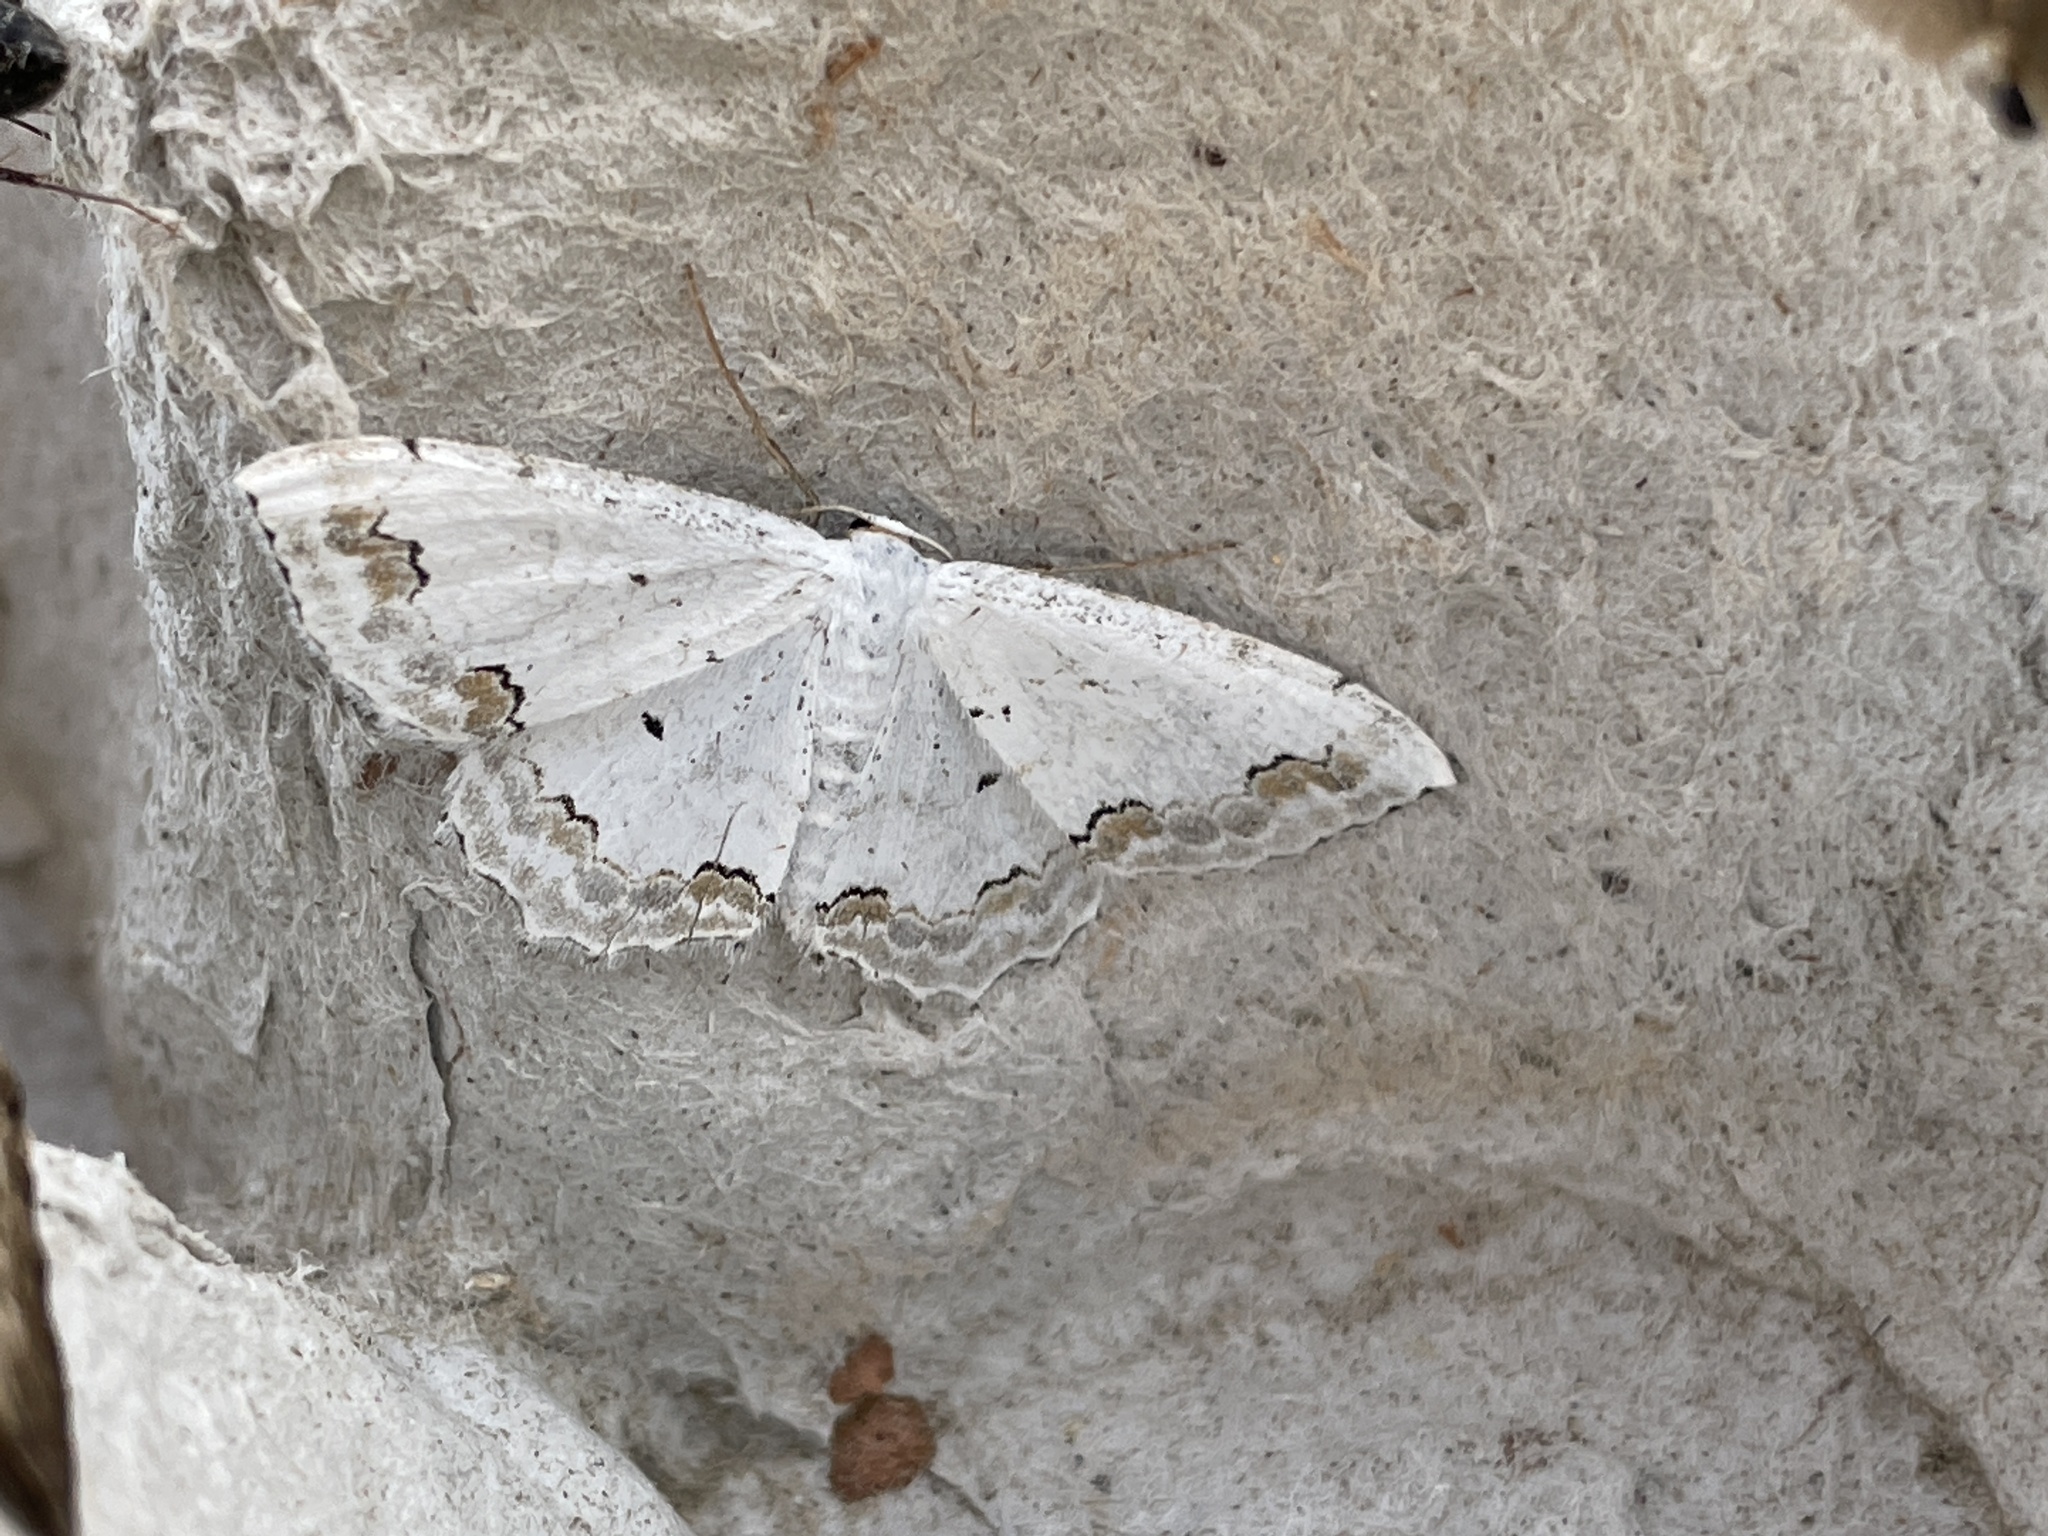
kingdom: Animalia
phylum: Arthropoda
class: Insecta
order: Lepidoptera
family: Geometridae
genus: Scopula
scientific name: Scopula ornata
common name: Lace border
